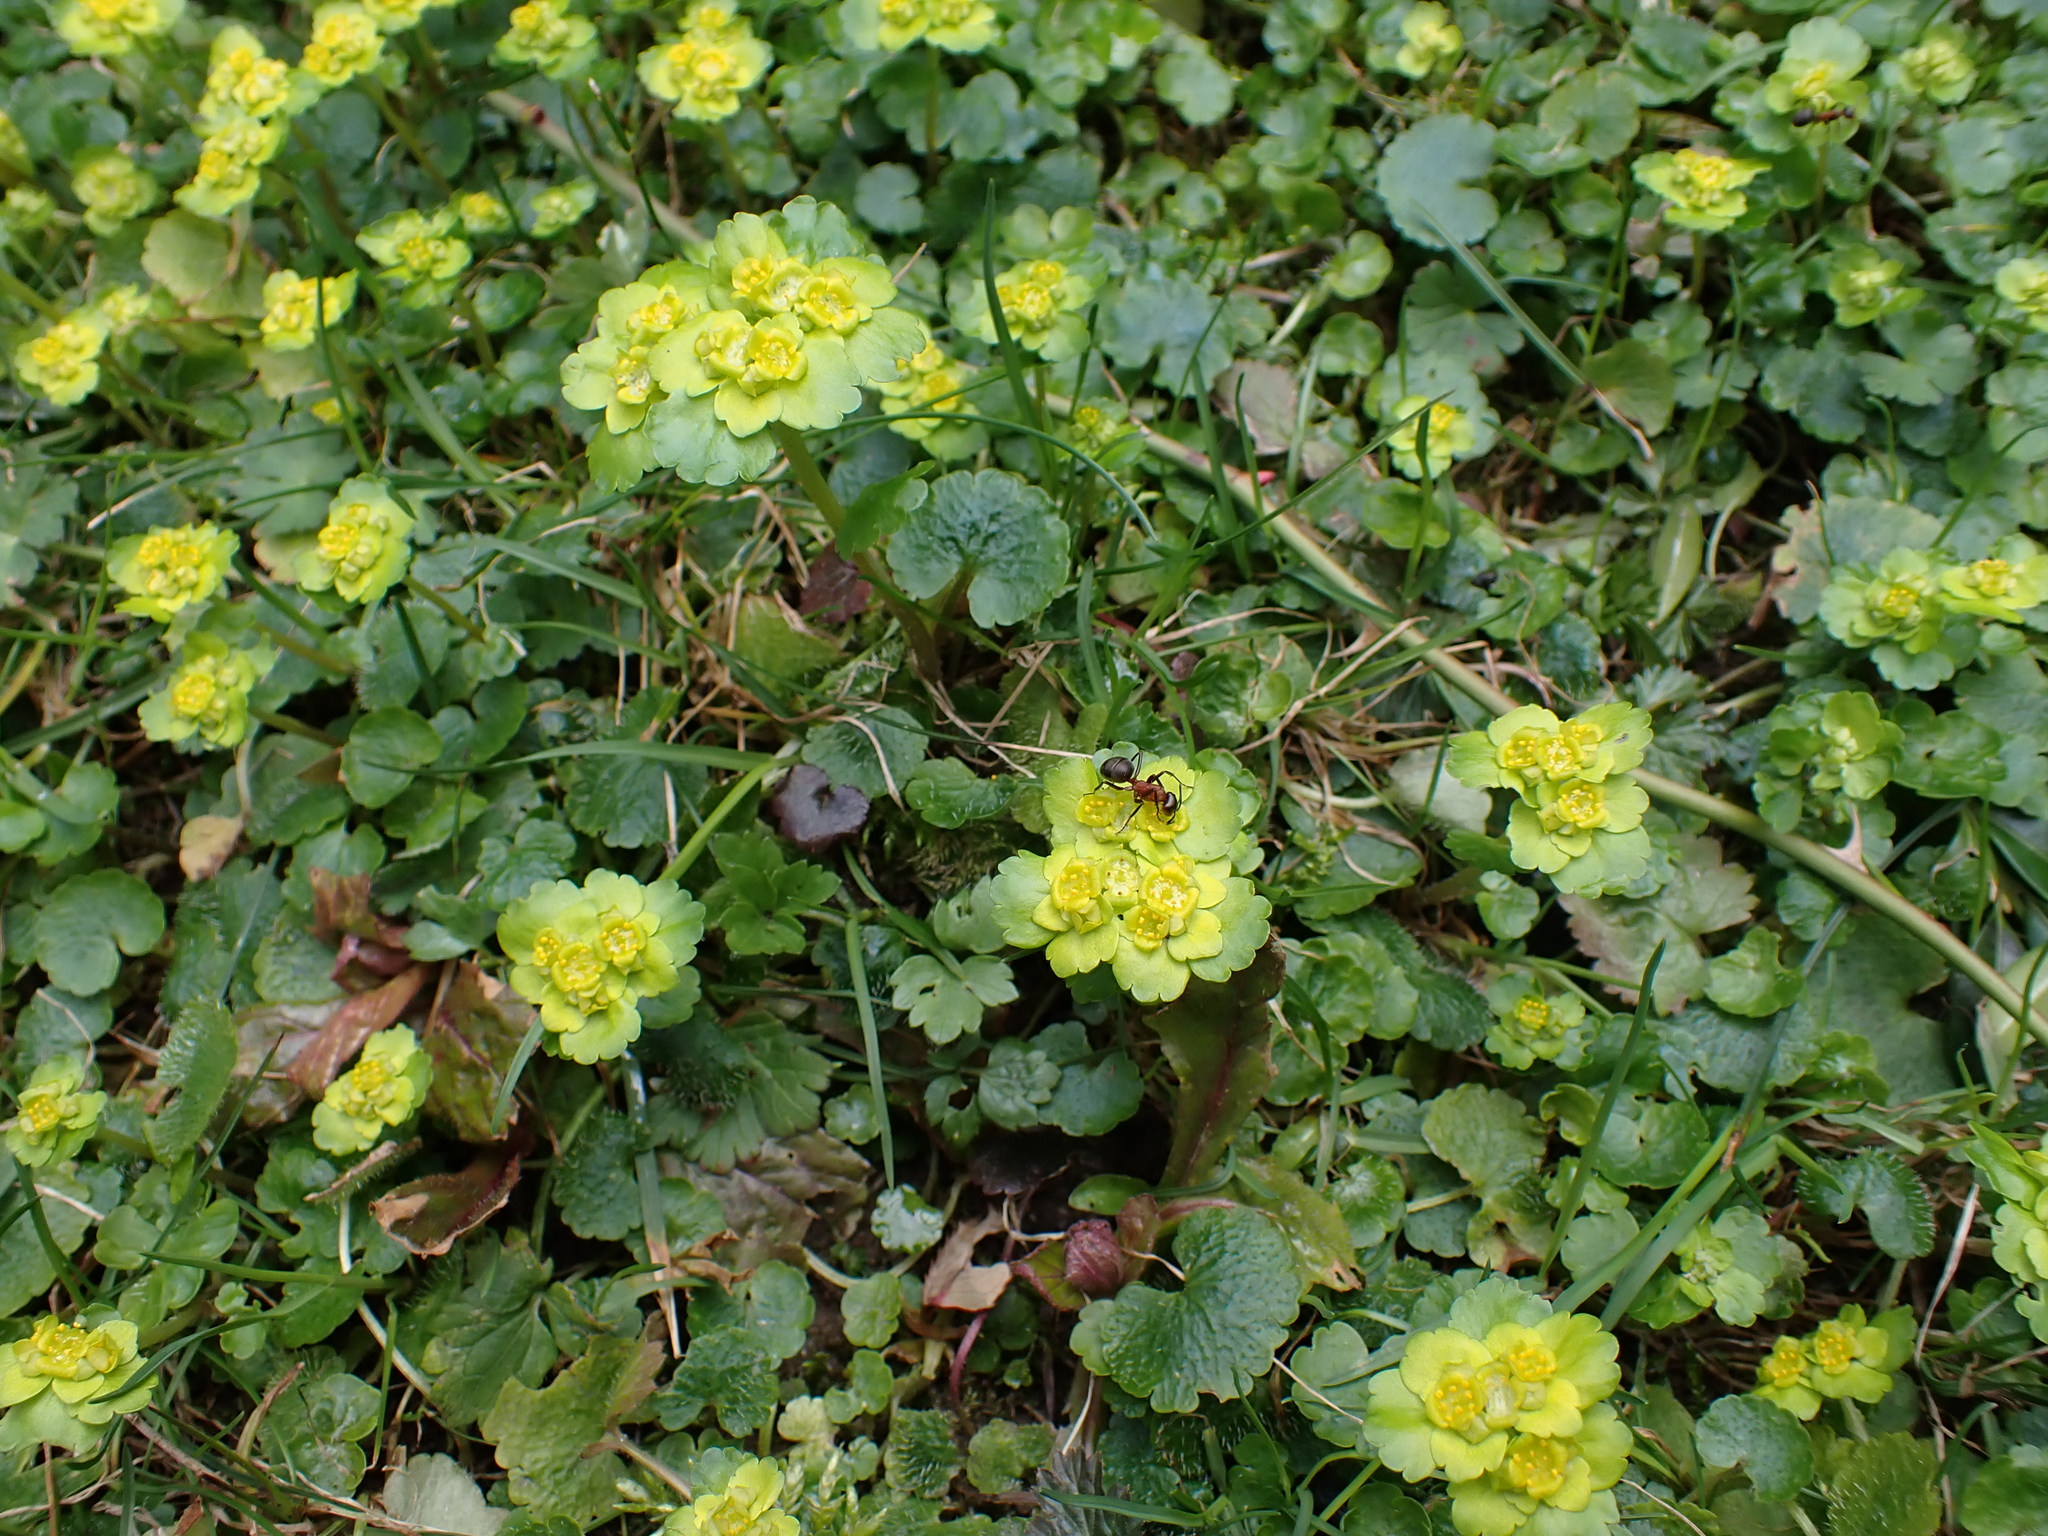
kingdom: Plantae
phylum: Tracheophyta
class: Magnoliopsida
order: Saxifragales
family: Saxifragaceae
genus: Chrysosplenium
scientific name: Chrysosplenium alternifolium
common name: Alternate-leaved golden-saxifrage
